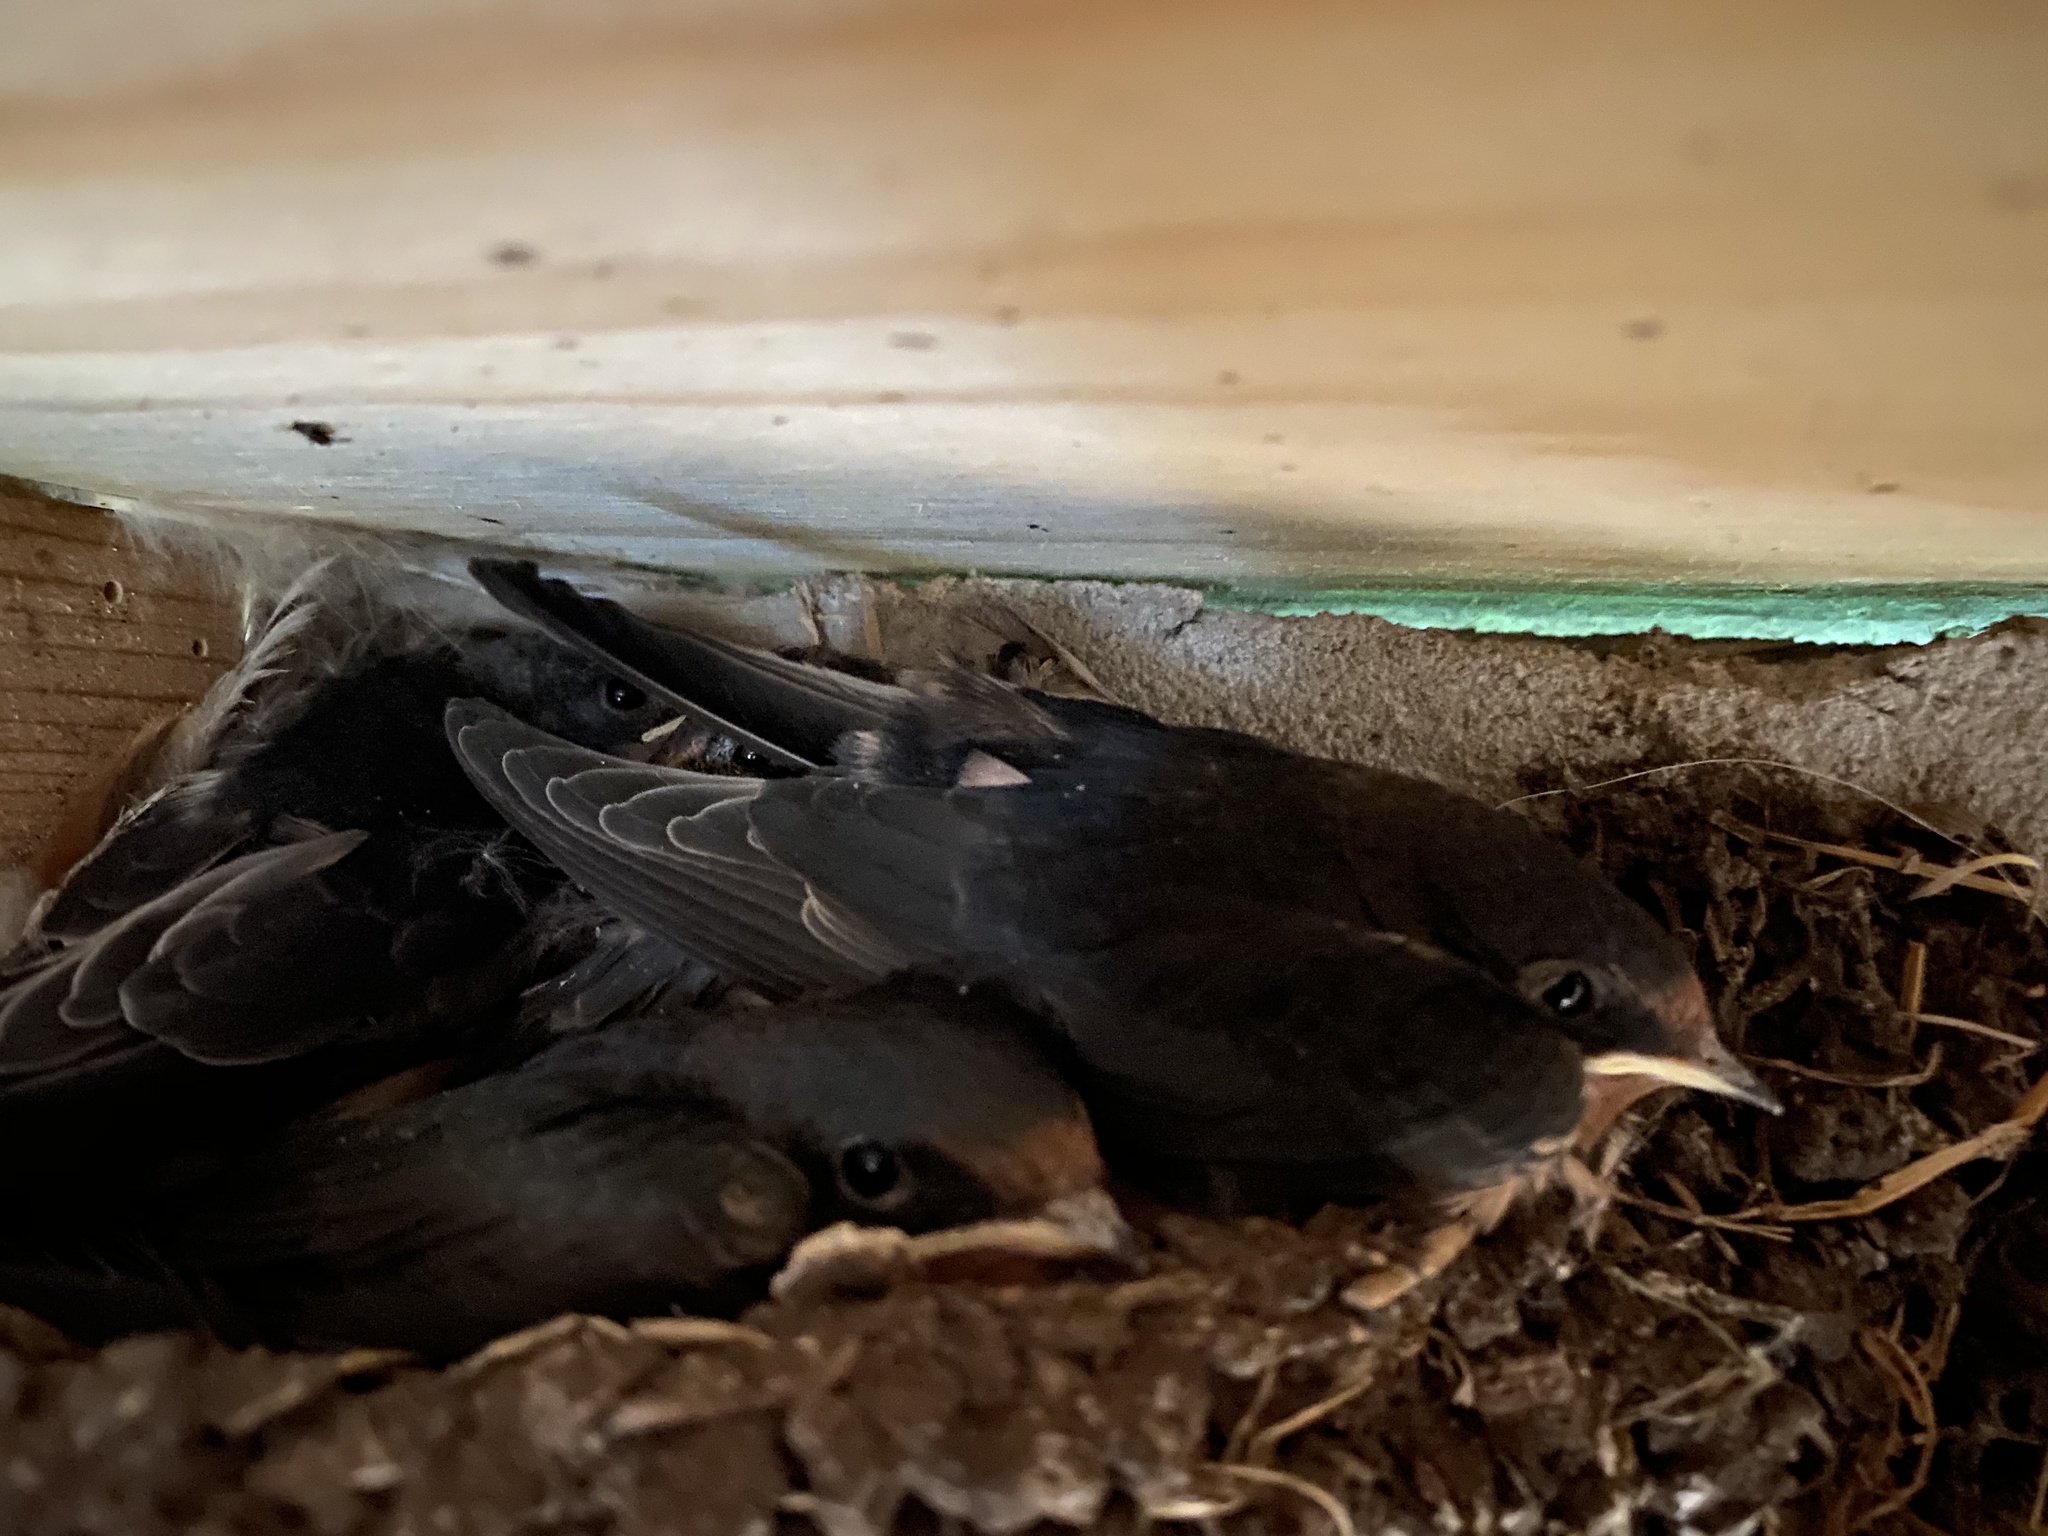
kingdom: Animalia
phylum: Chordata
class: Aves
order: Passeriformes
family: Hirundinidae
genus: Hirundo
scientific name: Hirundo rustica
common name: Barn swallow
